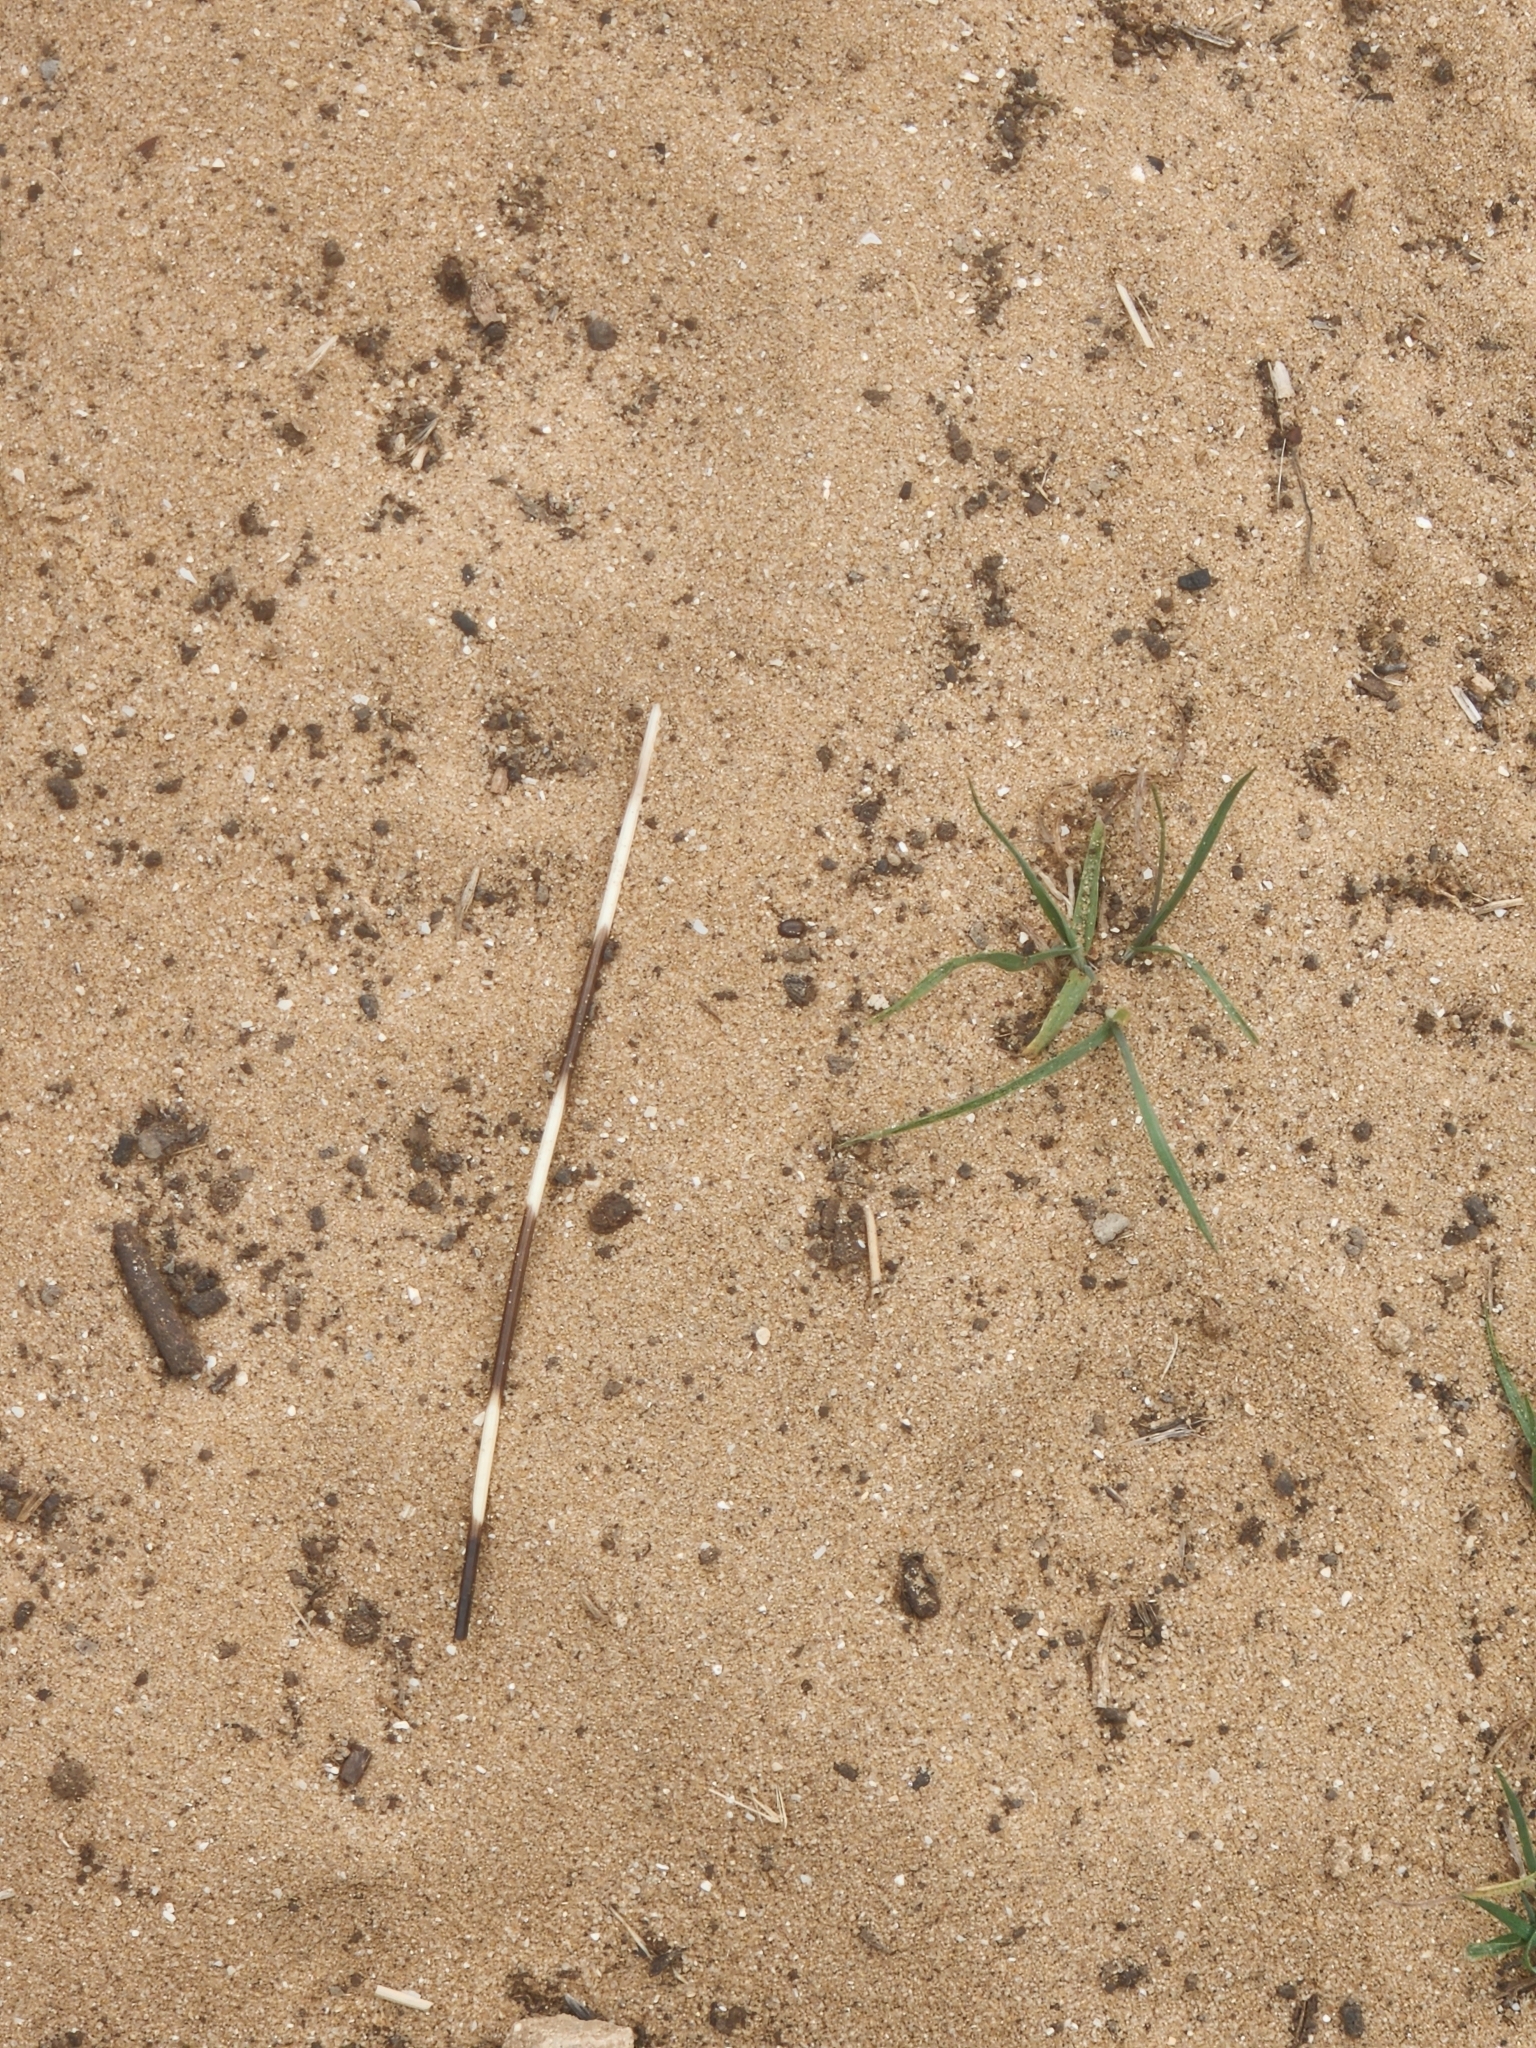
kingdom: Animalia
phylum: Chordata
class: Mammalia
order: Rodentia
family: Hystricidae
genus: Hystrix
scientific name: Hystrix indica
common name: Indian crested porcupine
